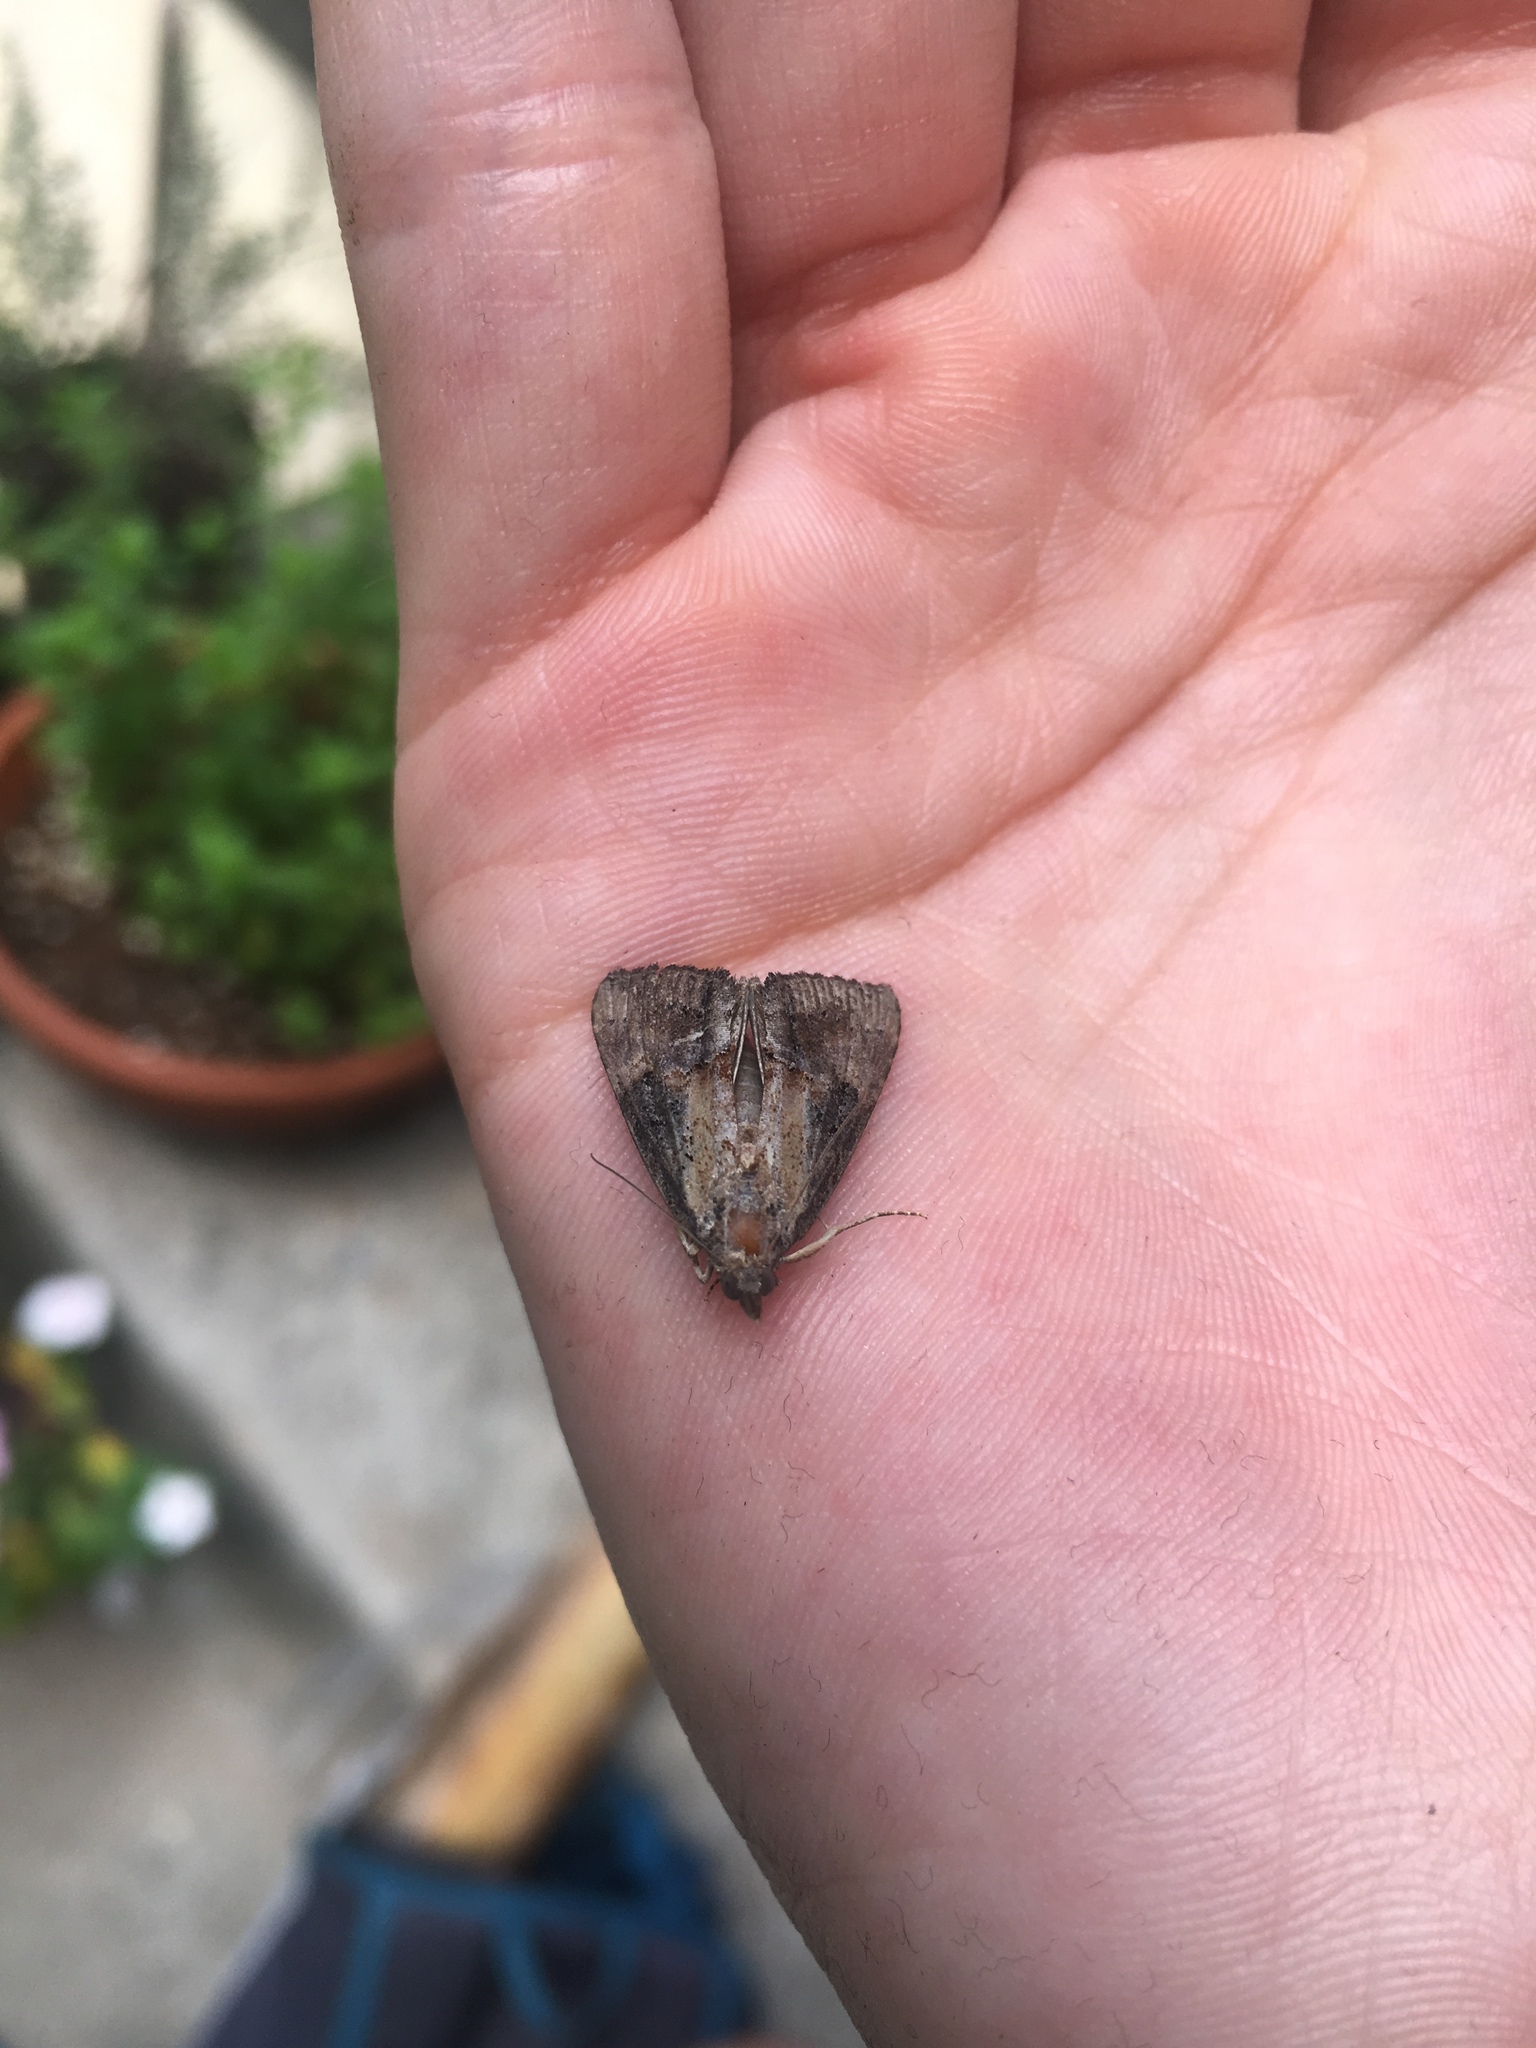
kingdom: Animalia
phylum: Arthropoda
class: Insecta
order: Lepidoptera
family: Erebidae
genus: Hypena
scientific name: Hypena scabra
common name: Green cloverworm
